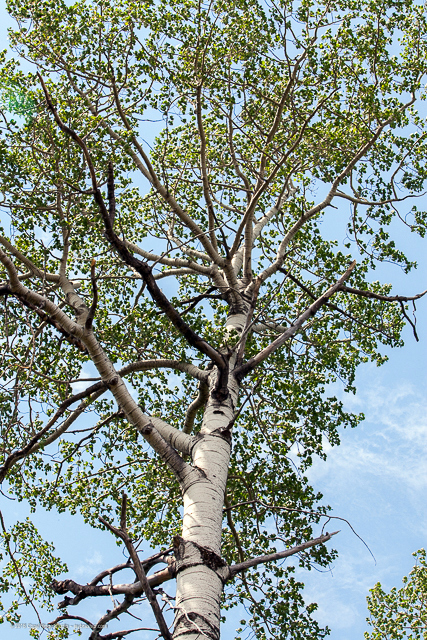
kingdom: Plantae
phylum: Tracheophyta
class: Magnoliopsida
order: Malpighiales
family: Salicaceae
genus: Populus
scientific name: Populus tremuloides
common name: Quaking aspen
